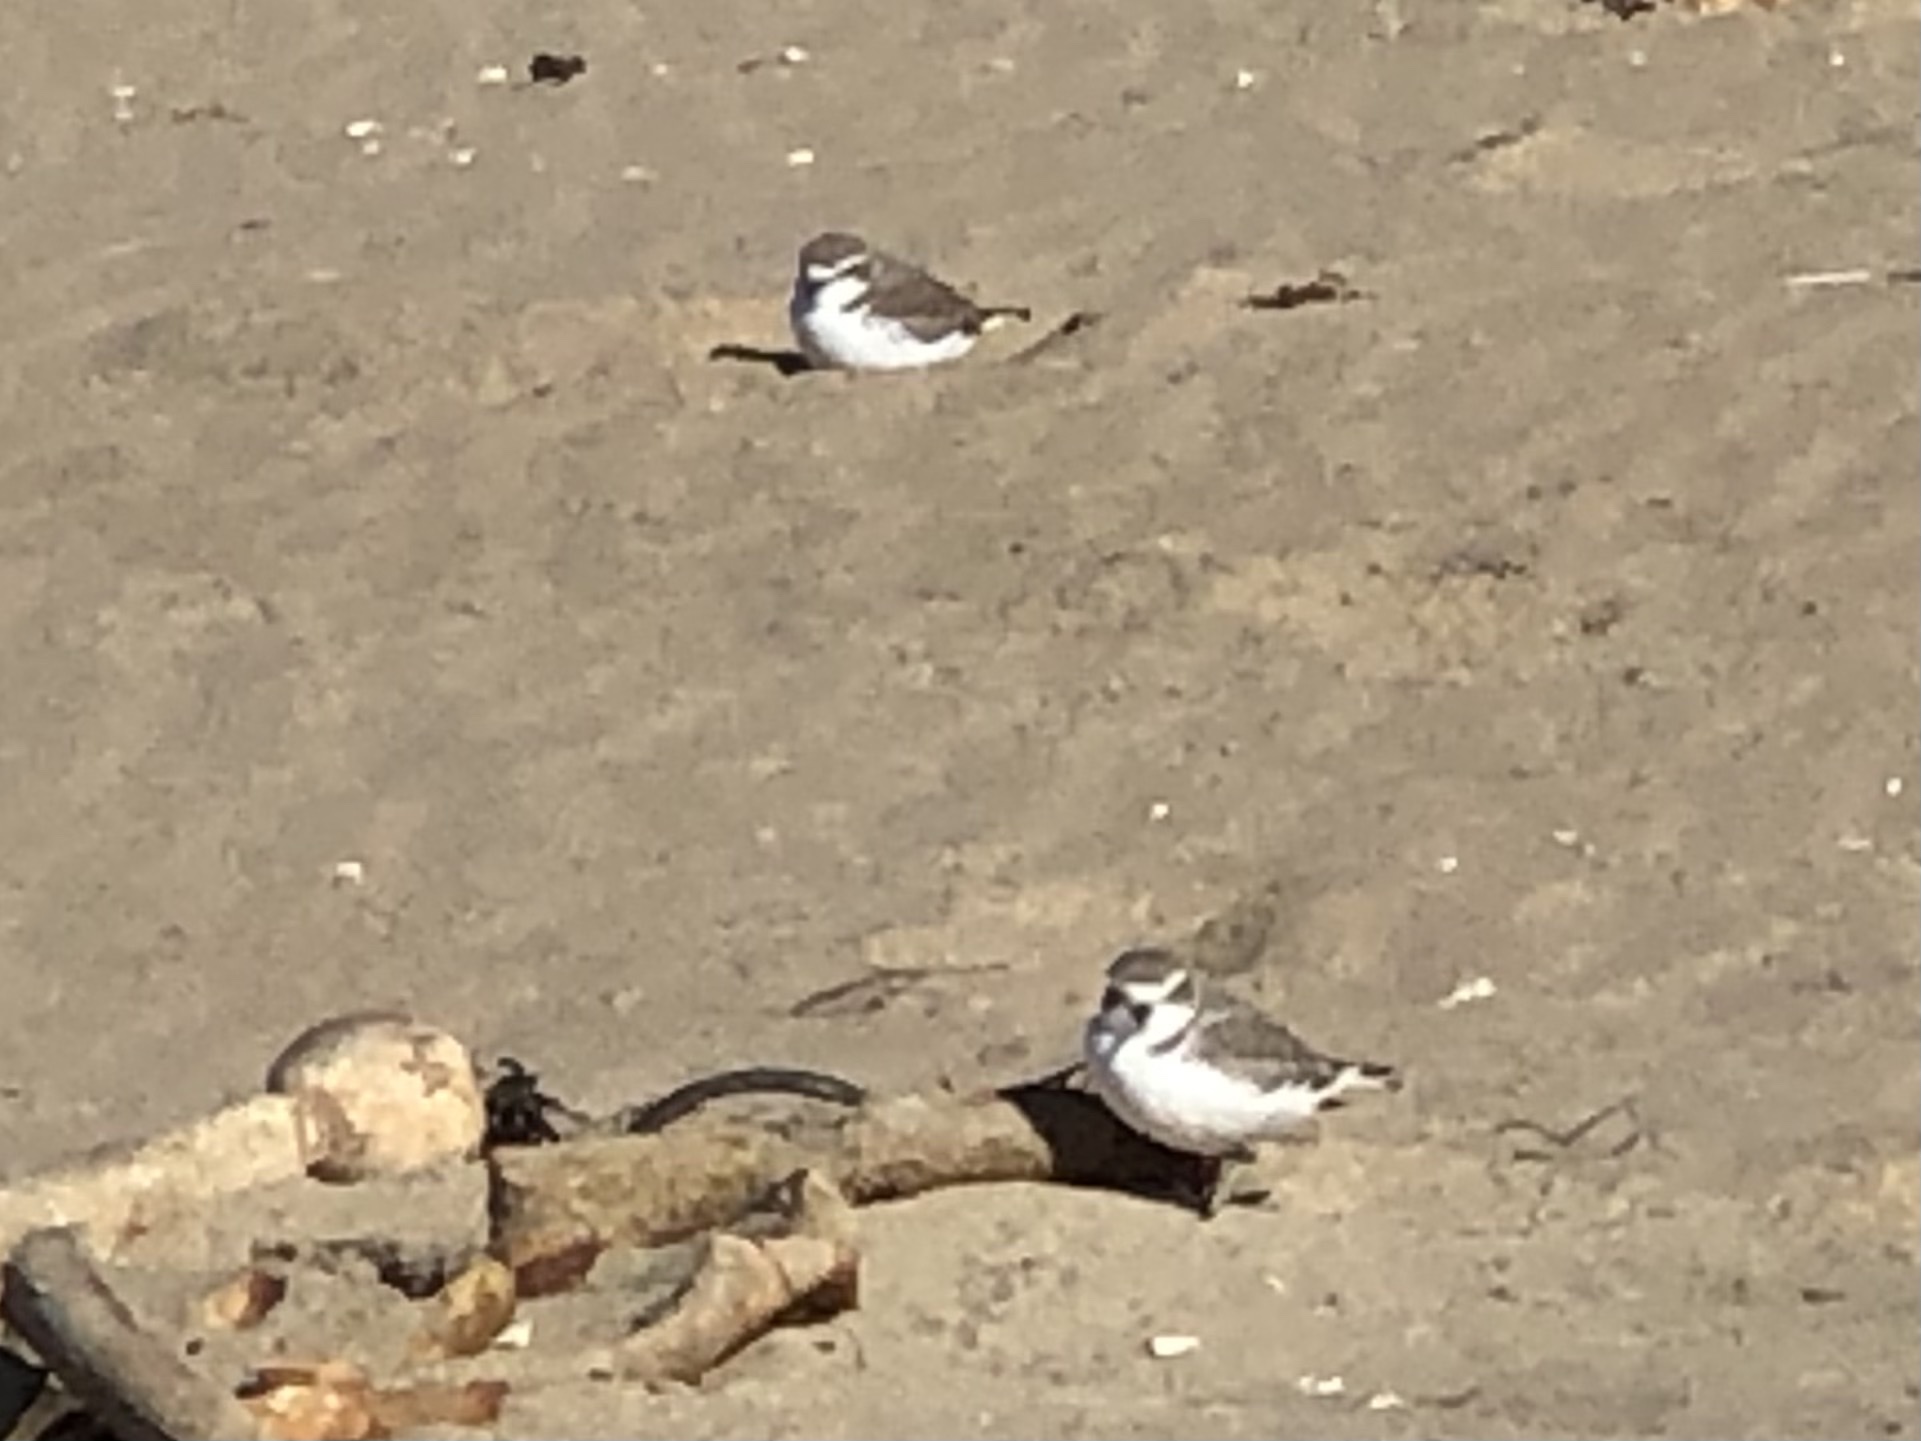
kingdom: Animalia
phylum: Chordata
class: Aves
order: Charadriiformes
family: Charadriidae
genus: Anarhynchus
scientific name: Anarhynchus
